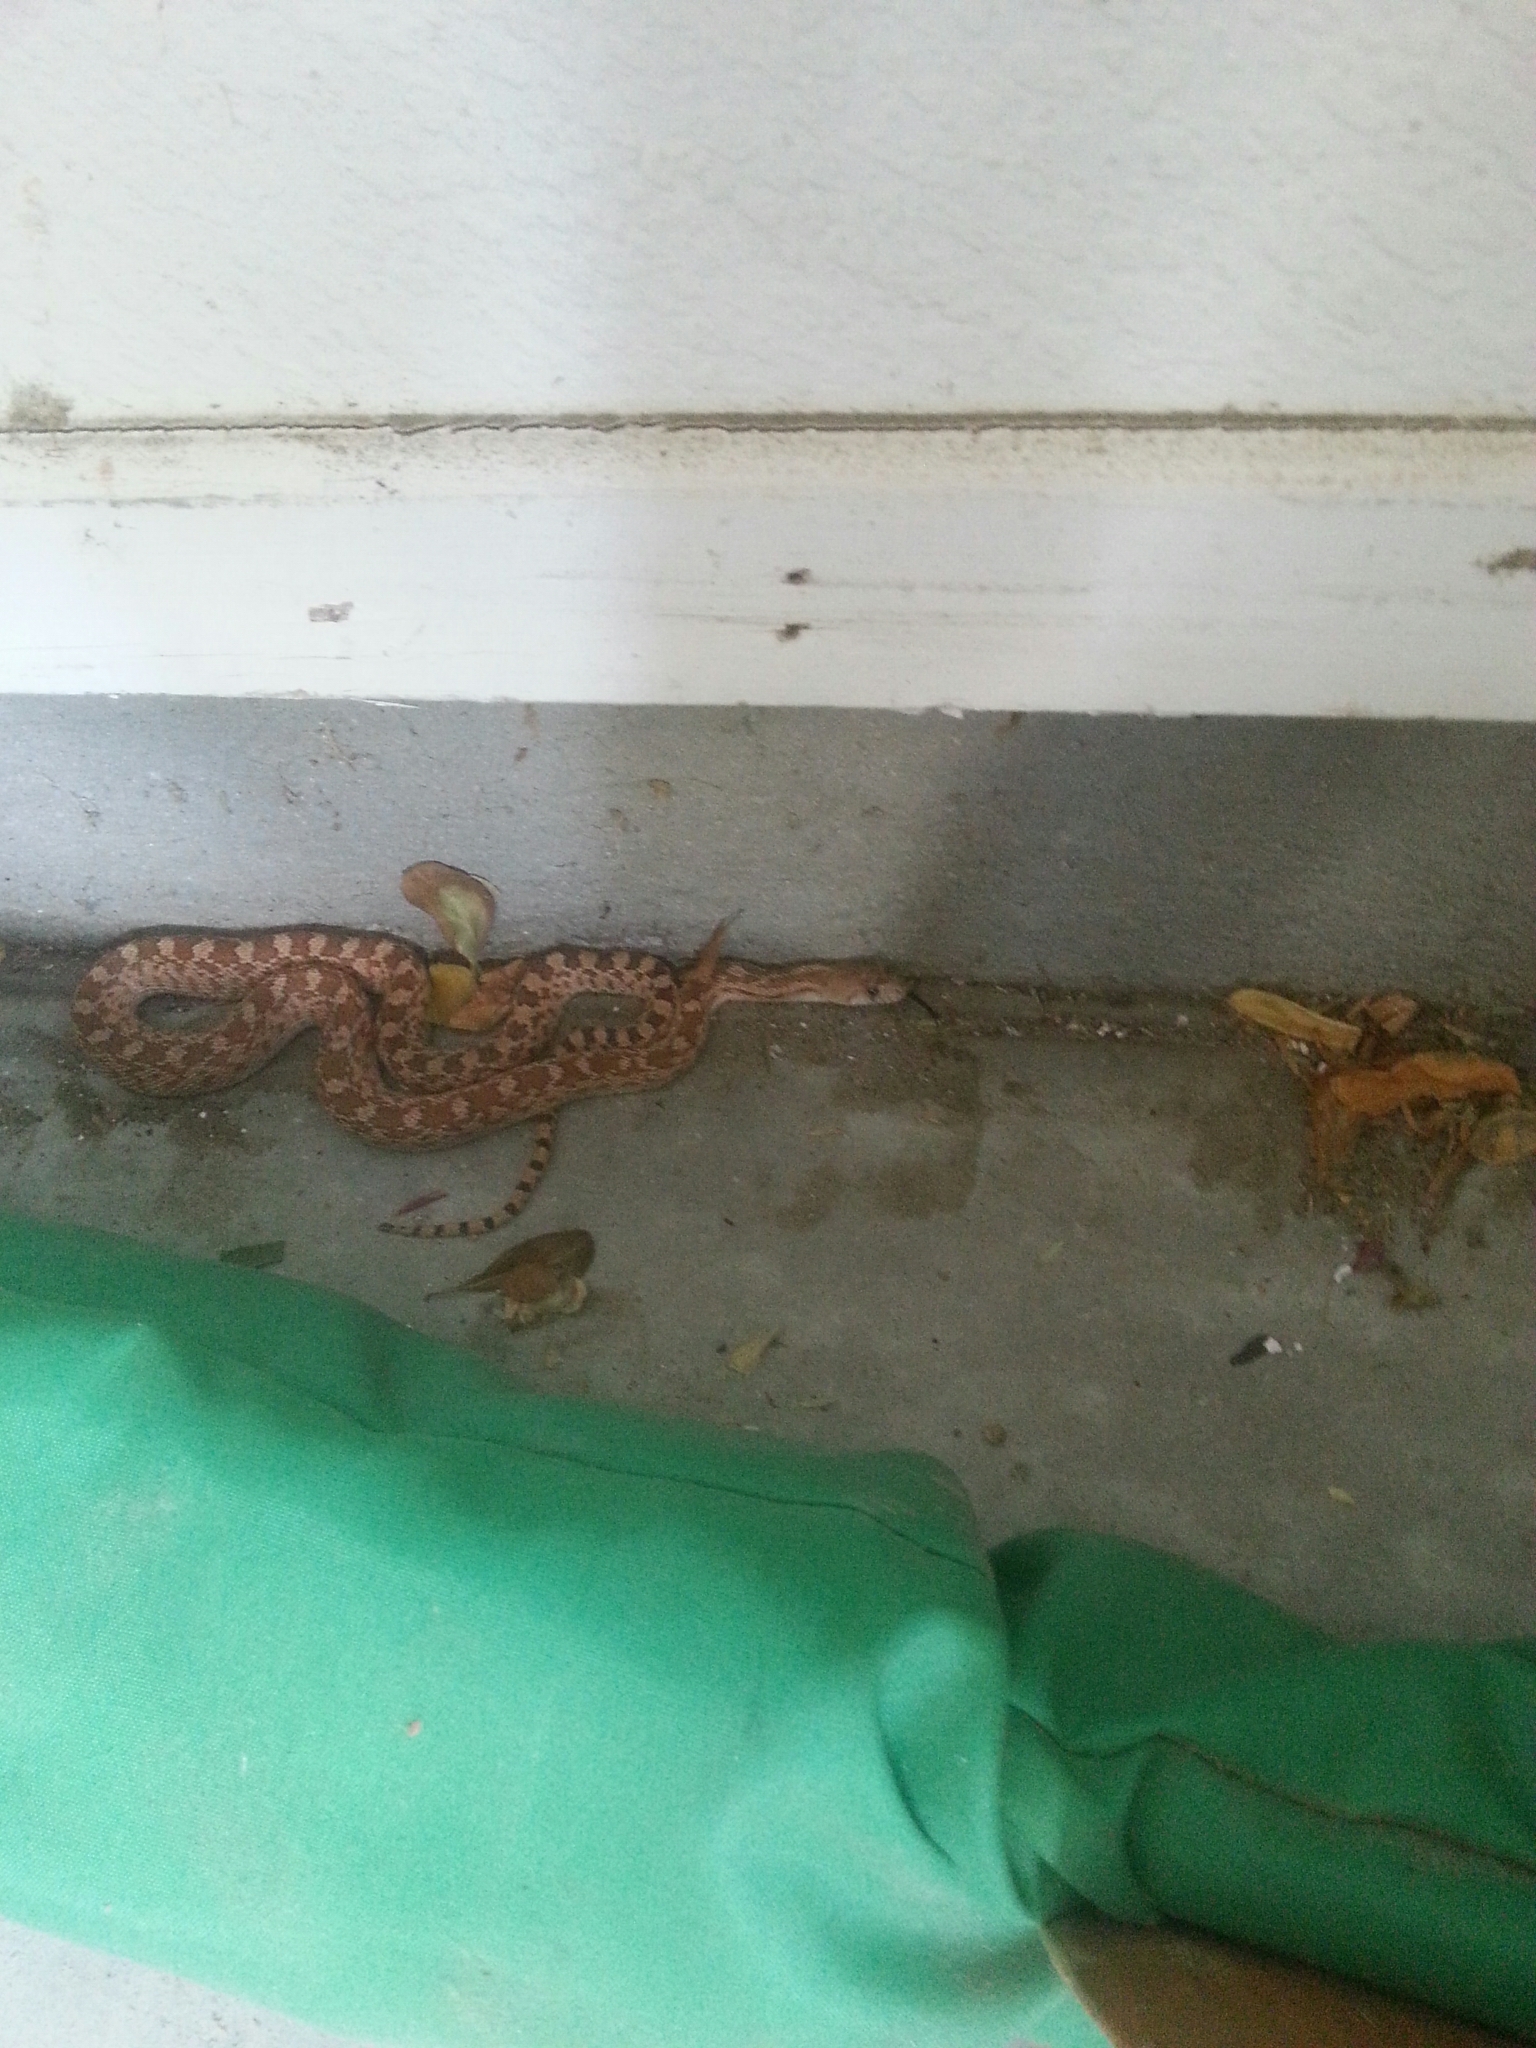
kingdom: Animalia
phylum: Chordata
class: Squamata
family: Colubridae
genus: Pituophis
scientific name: Pituophis catenifer
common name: Gopher snake
